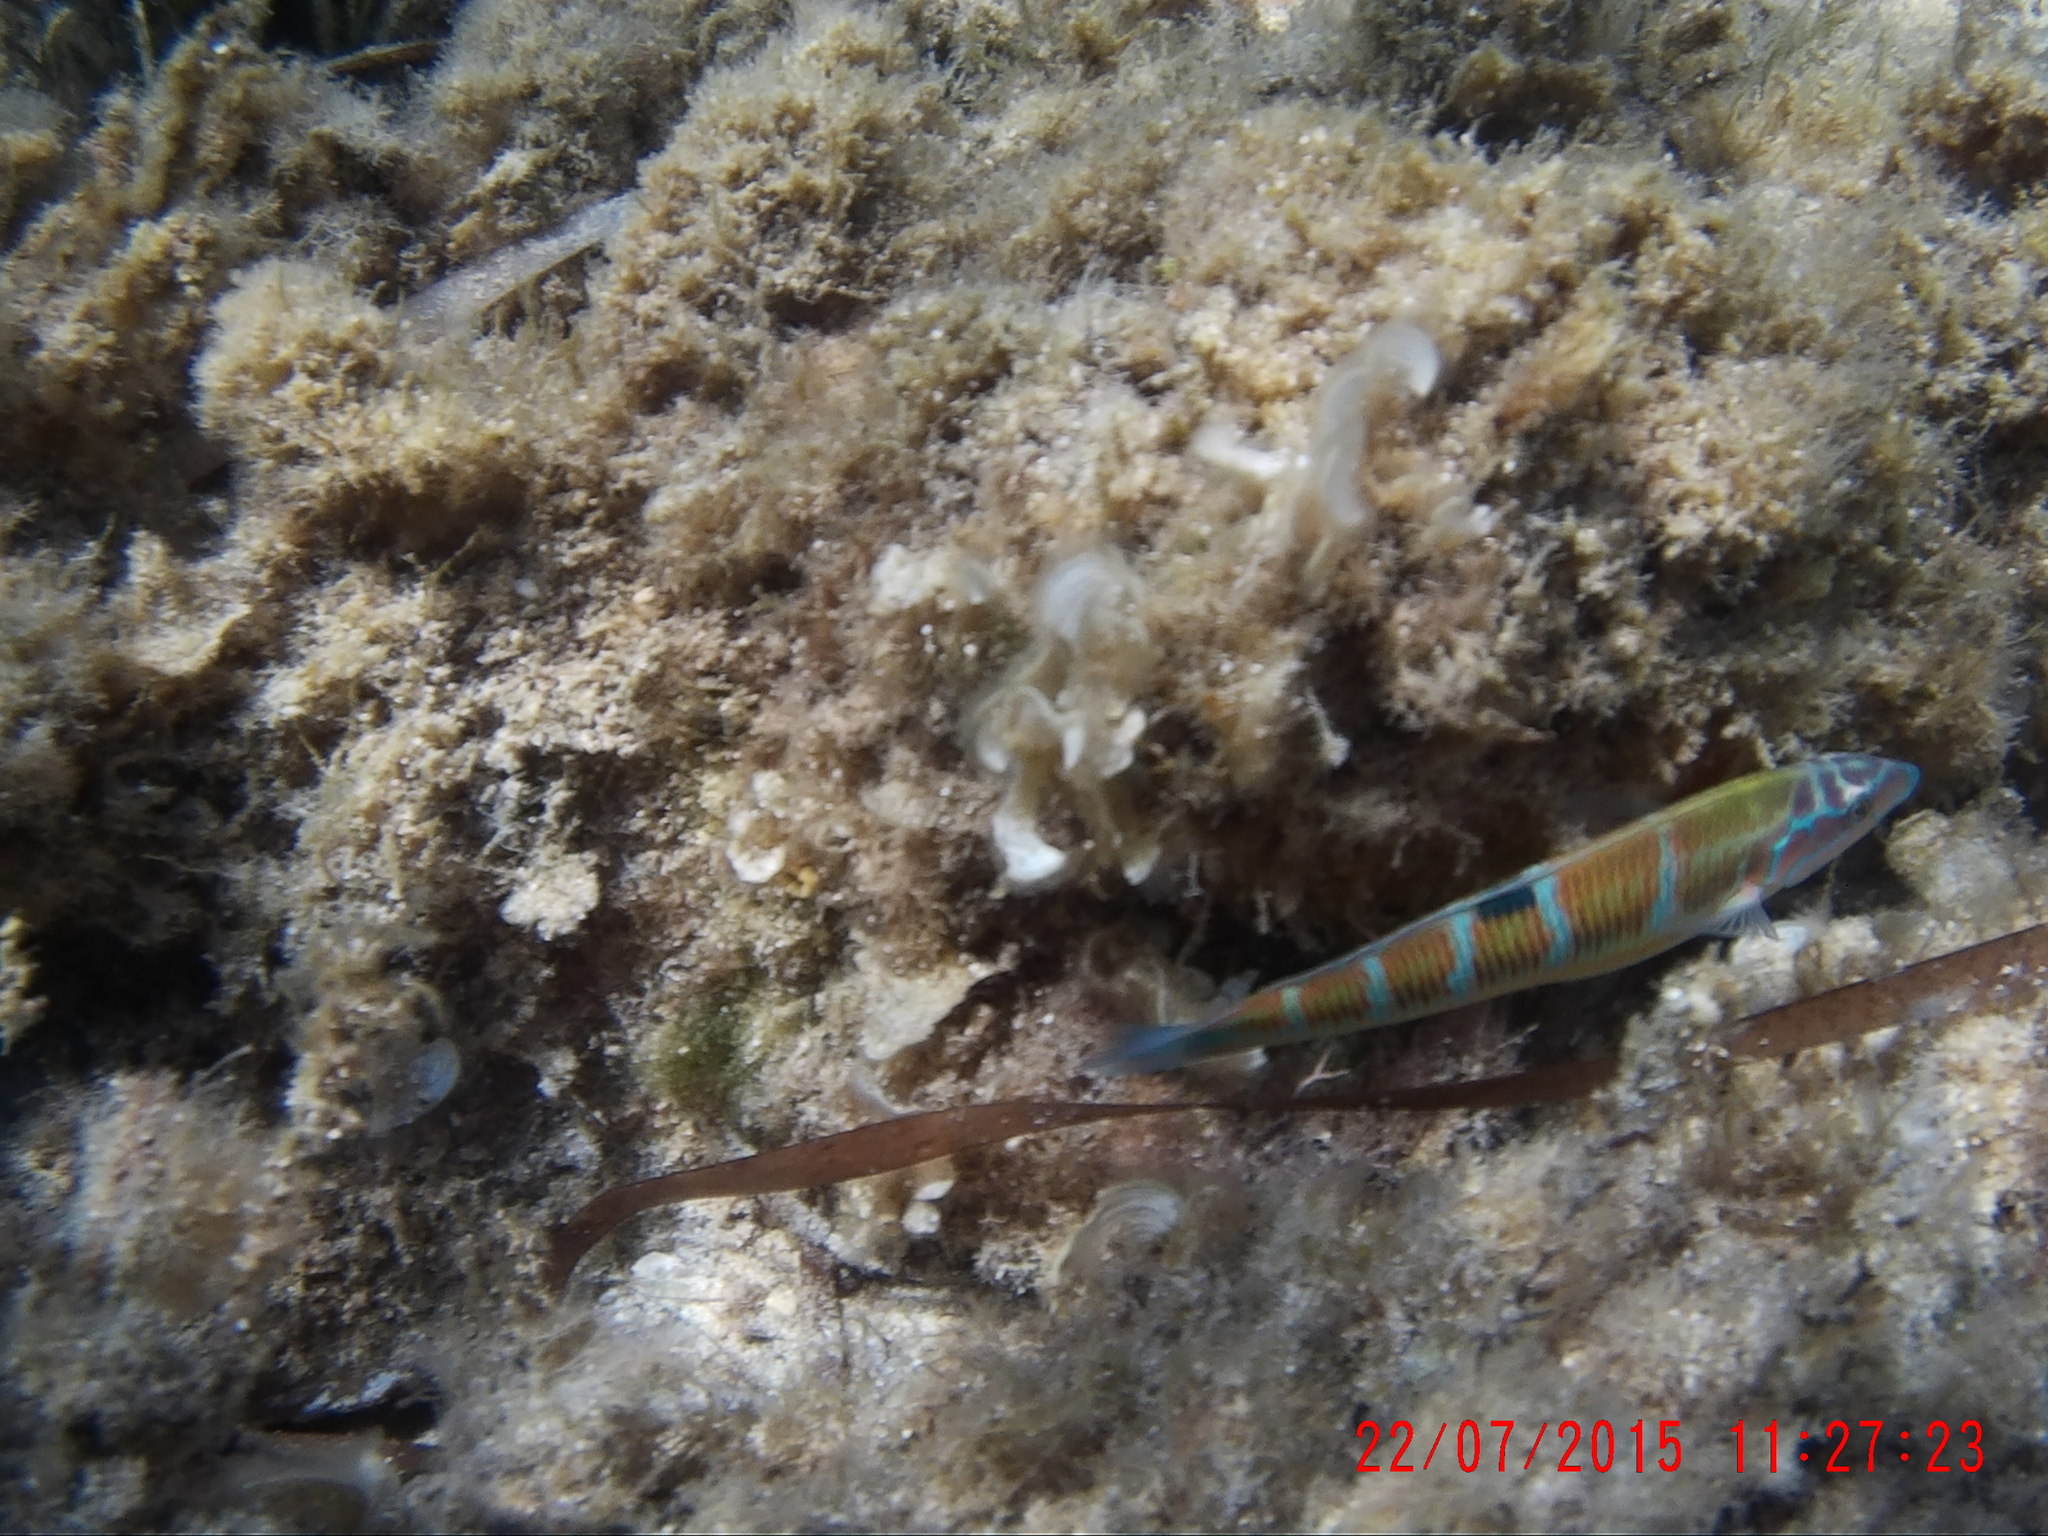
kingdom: Animalia
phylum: Chordata
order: Perciformes
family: Labridae
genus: Thalassoma
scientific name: Thalassoma pavo
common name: Ornate wrasse
